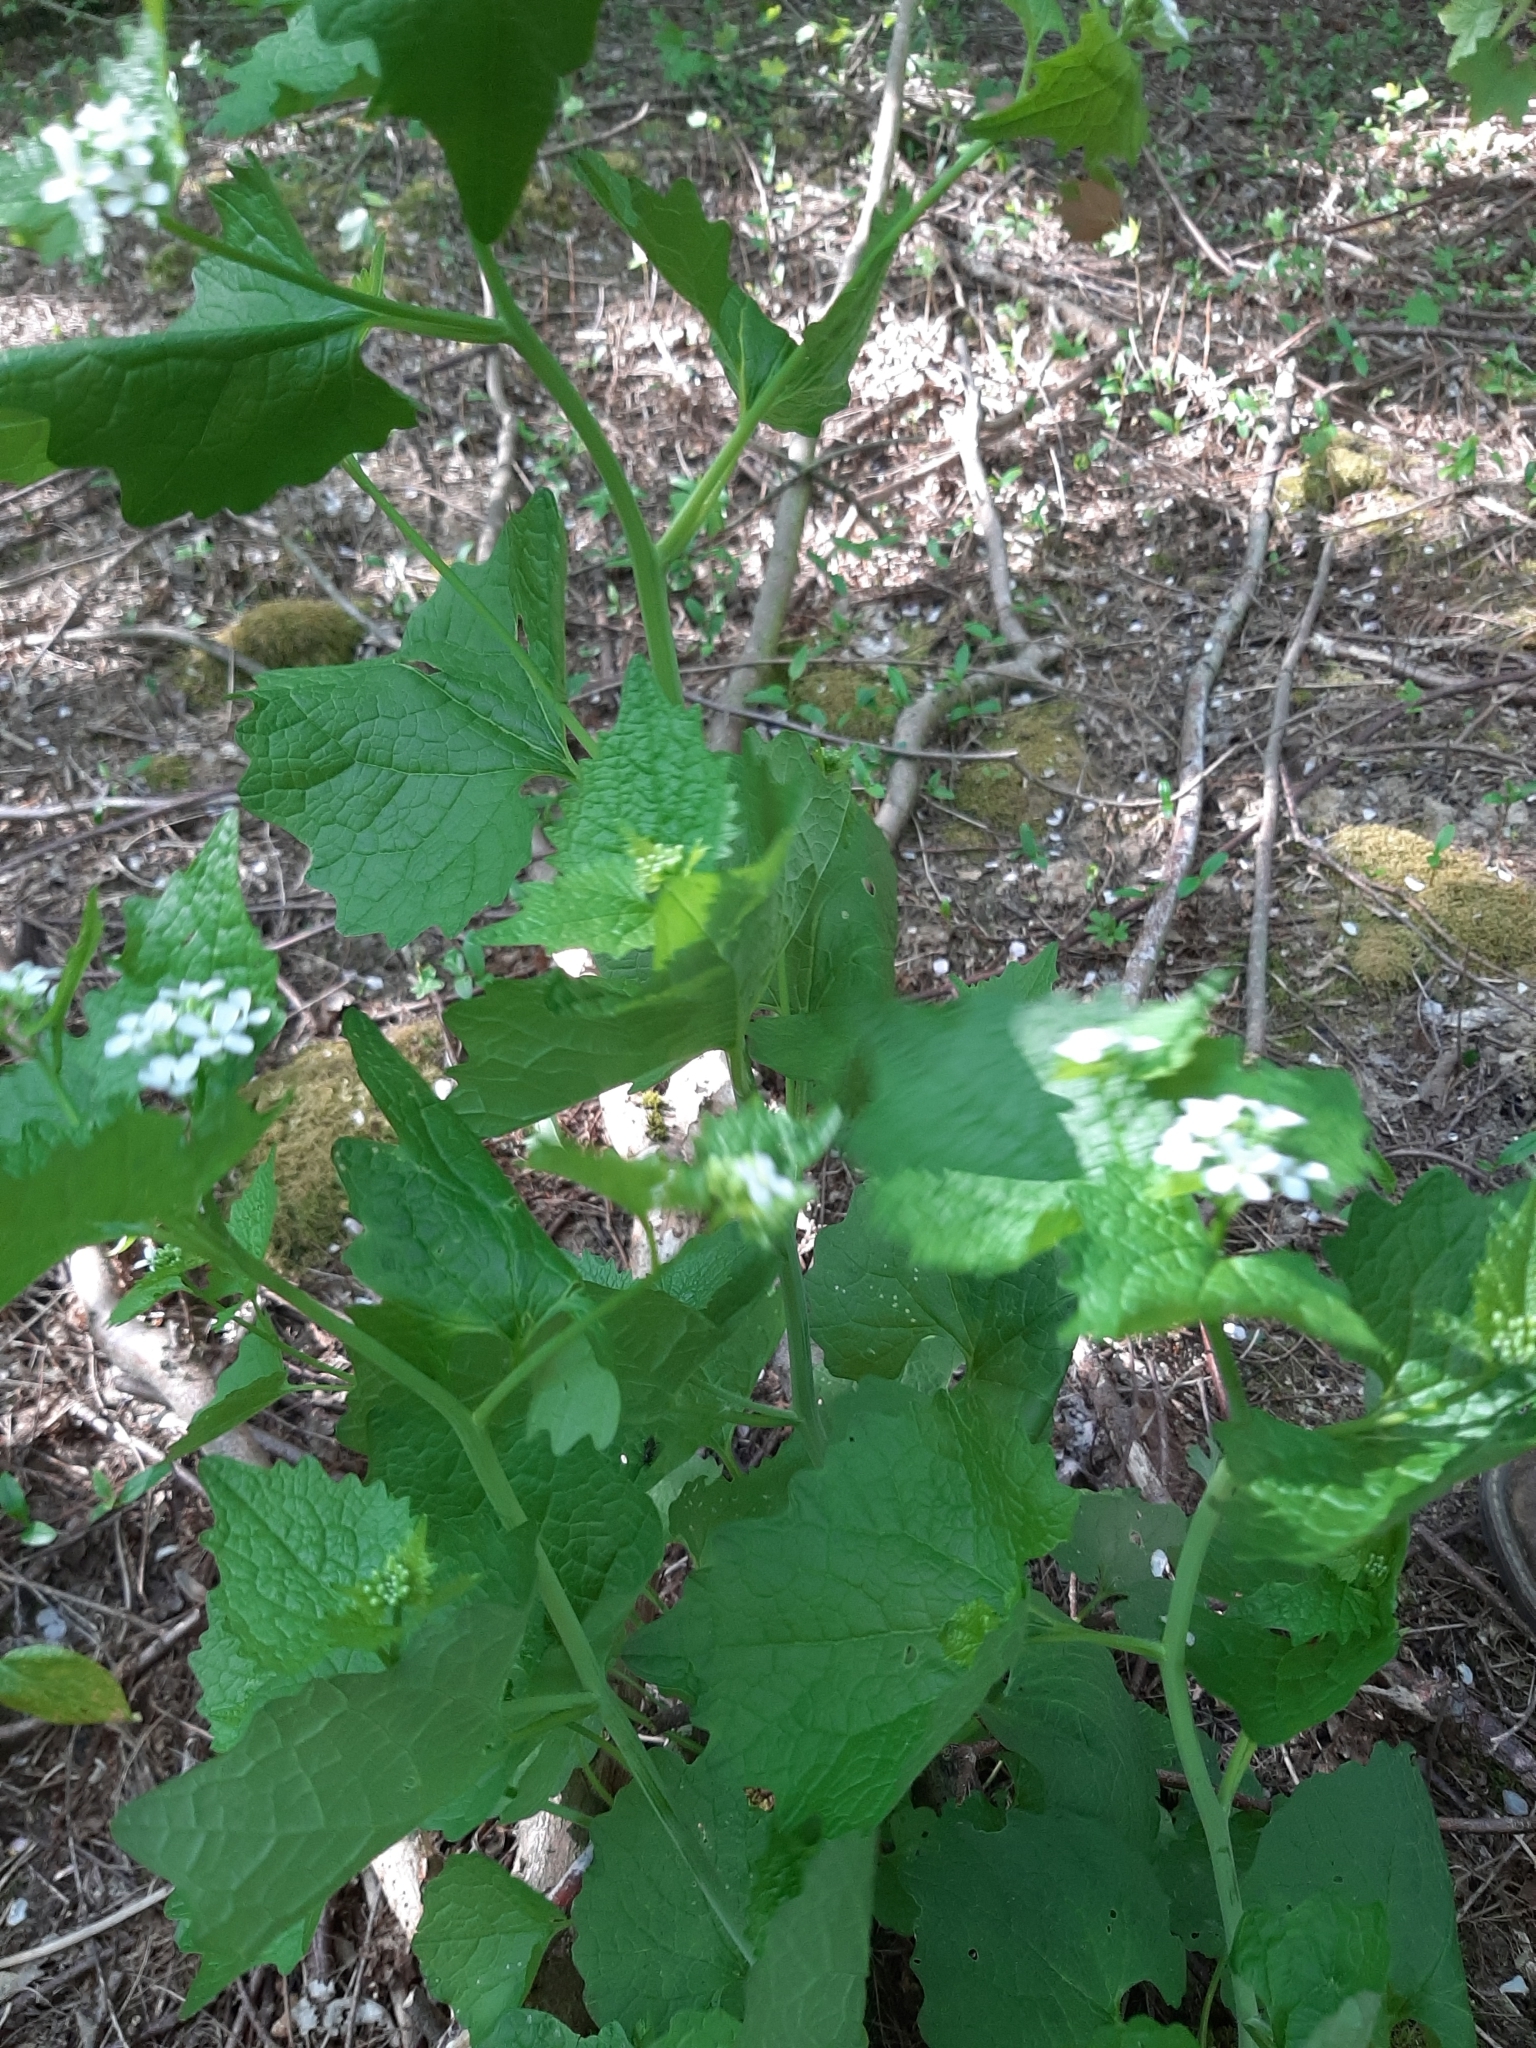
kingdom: Plantae
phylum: Tracheophyta
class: Magnoliopsida
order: Brassicales
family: Brassicaceae
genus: Alliaria
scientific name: Alliaria petiolata
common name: Garlic mustard
